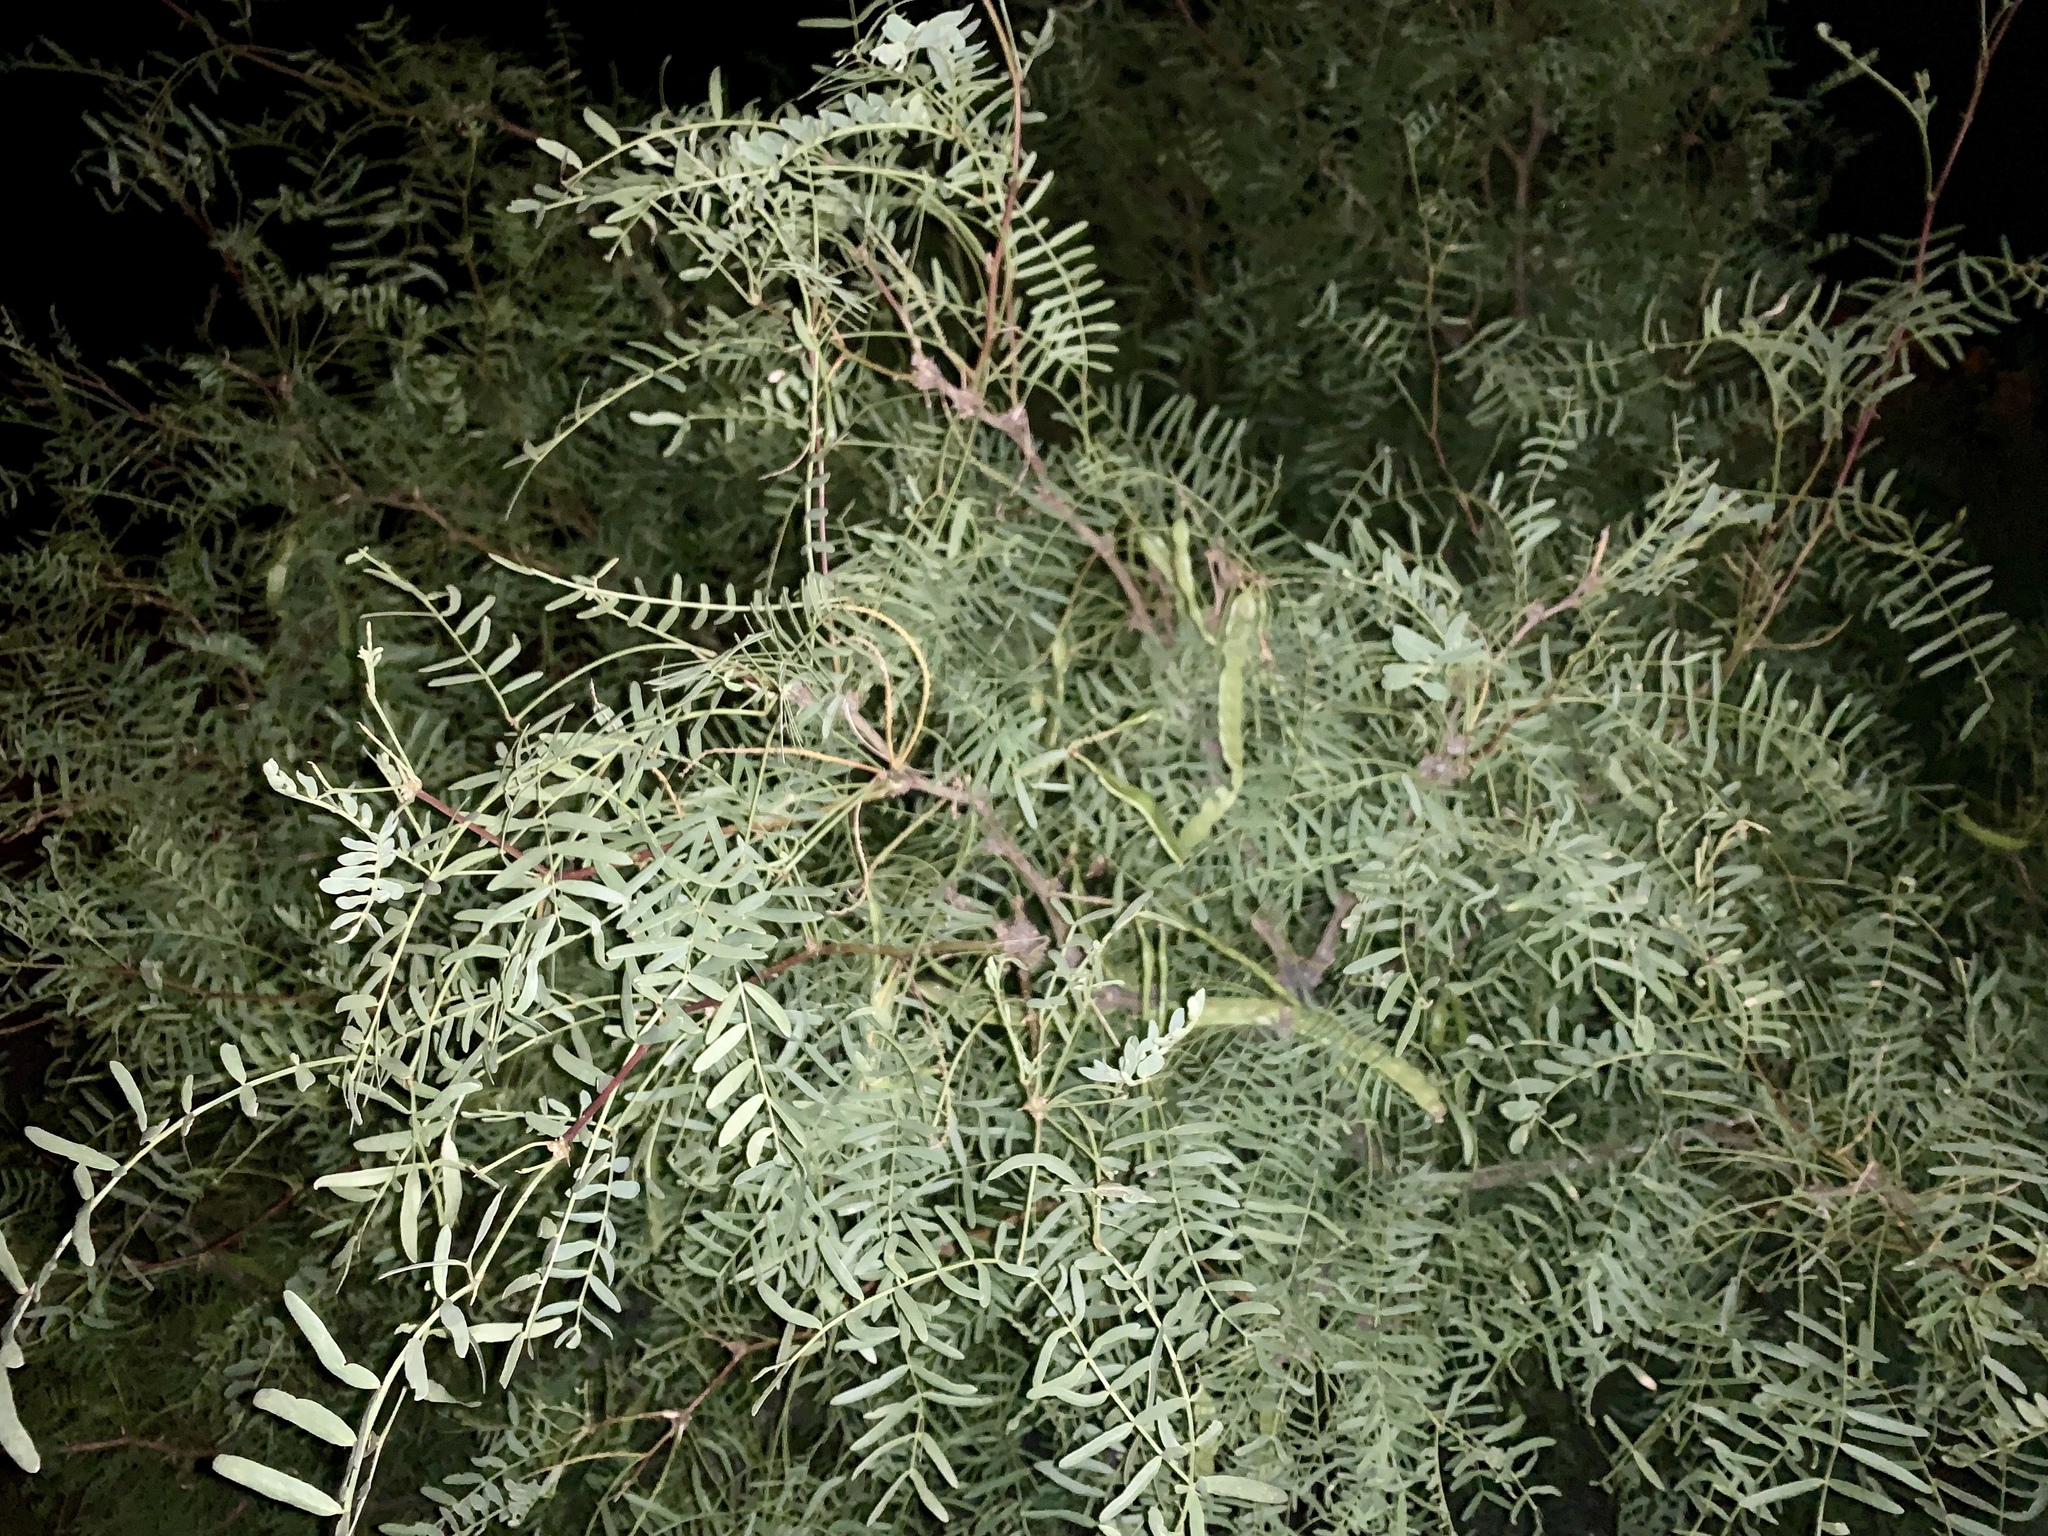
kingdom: Plantae
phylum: Tracheophyta
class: Magnoliopsida
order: Fabales
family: Fabaceae
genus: Prosopis
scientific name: Prosopis glandulosa
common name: Honey mesquite
